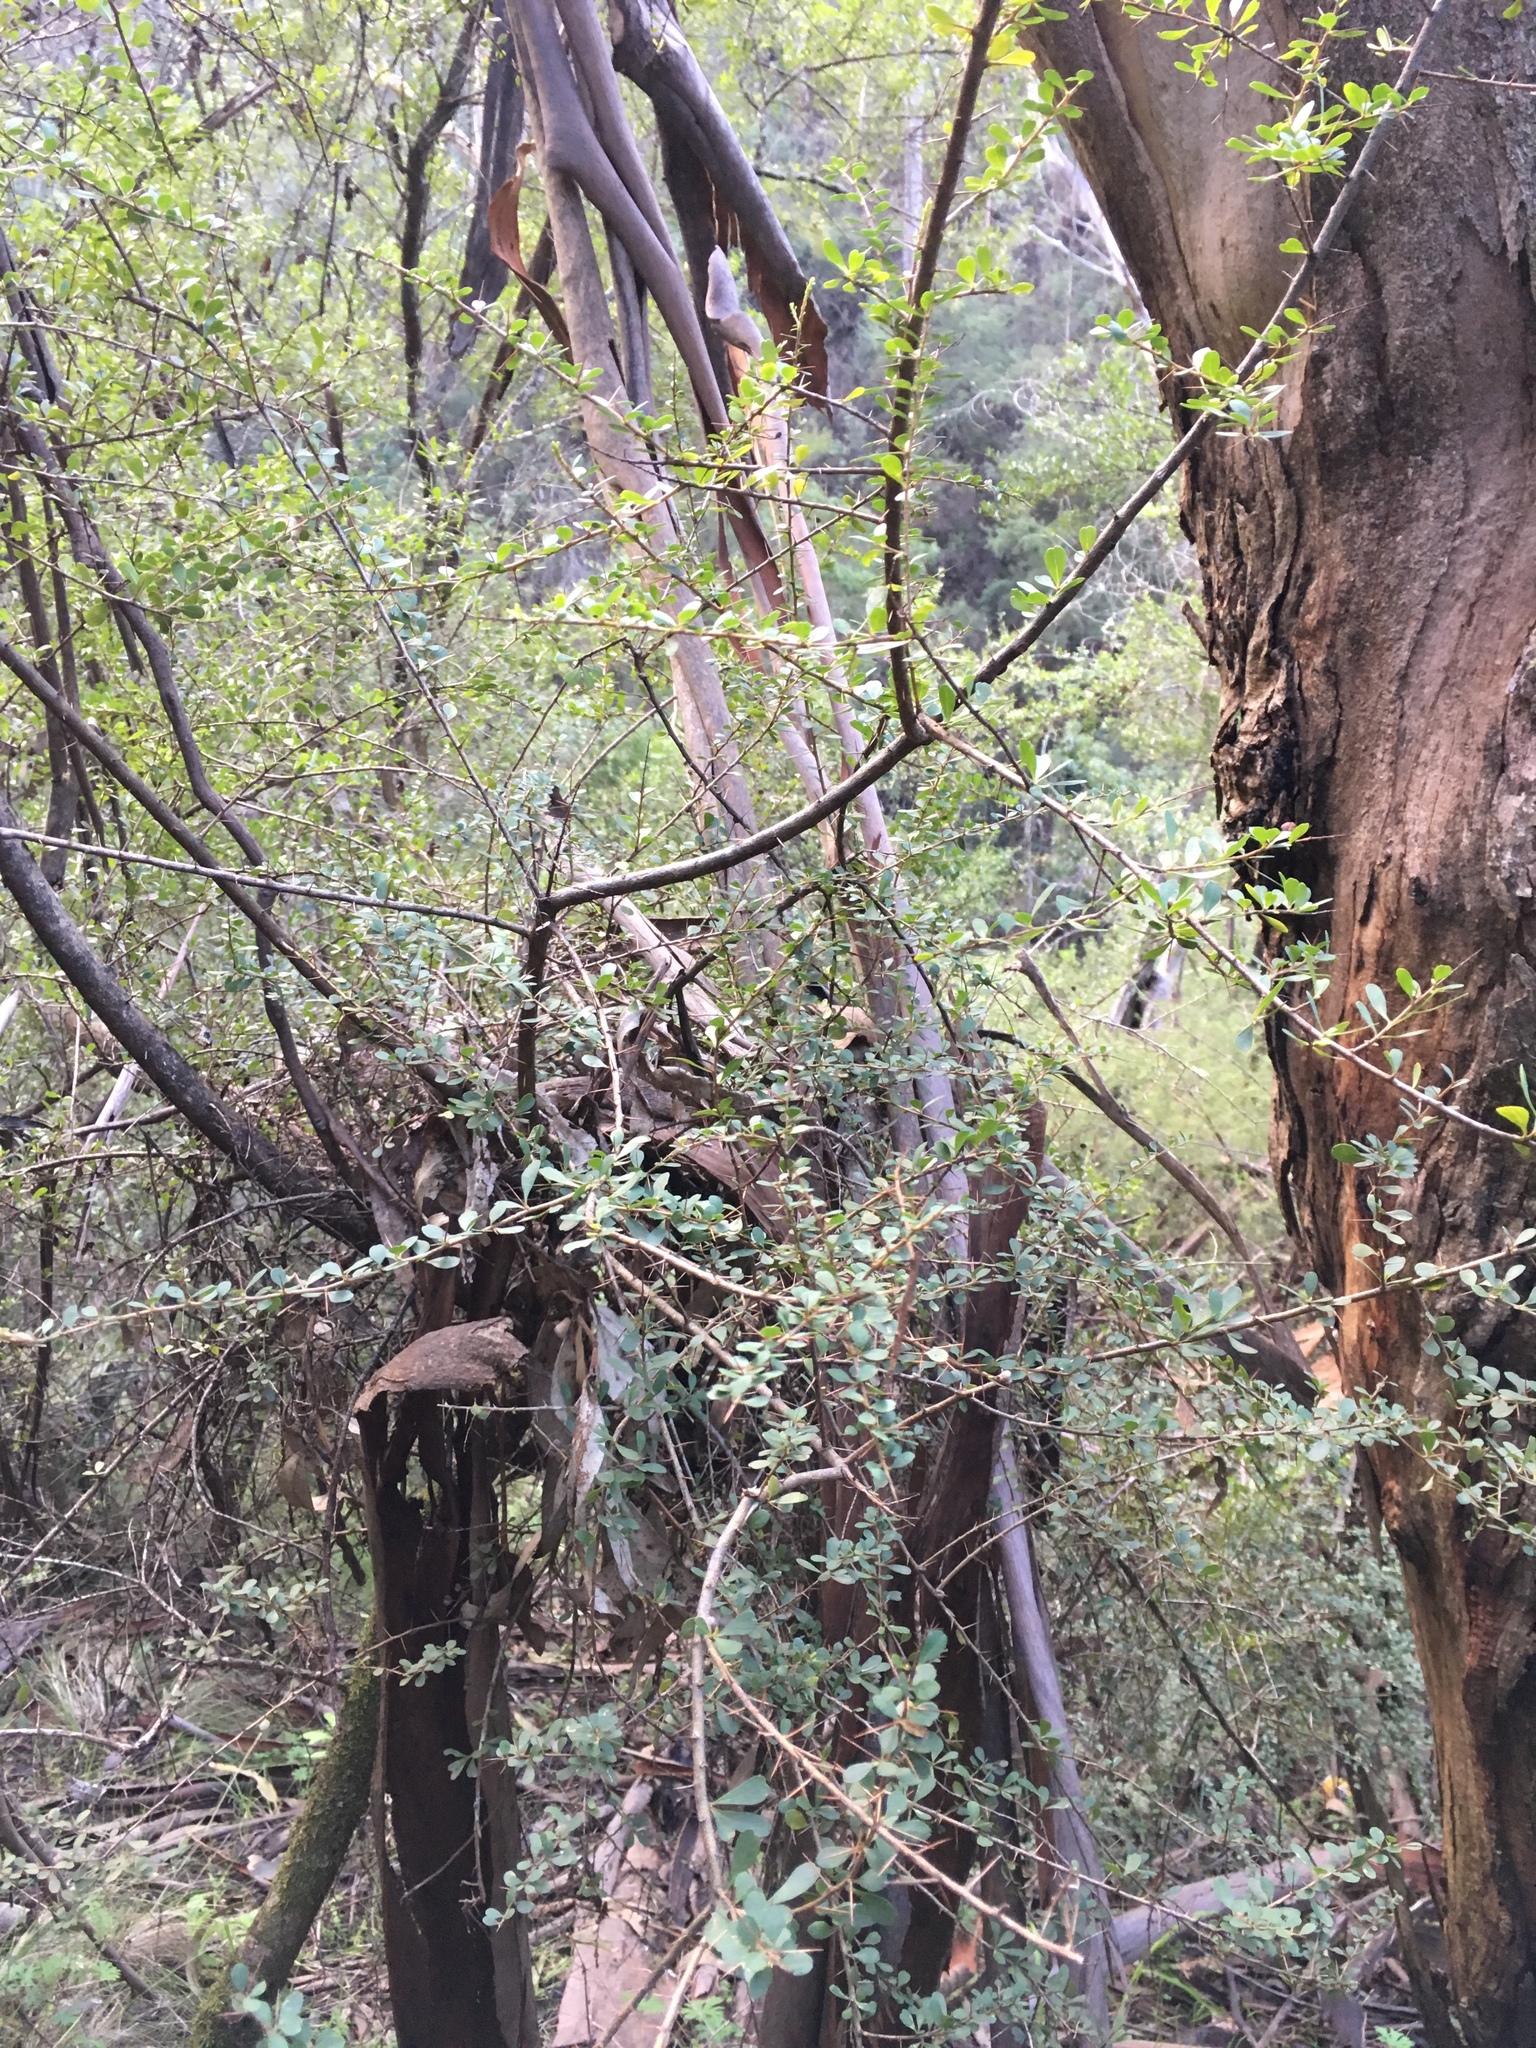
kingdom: Plantae
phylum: Tracheophyta
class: Magnoliopsida
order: Apiales
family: Pittosporaceae
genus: Bursaria
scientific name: Bursaria spinosa
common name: Australian blackthorn
